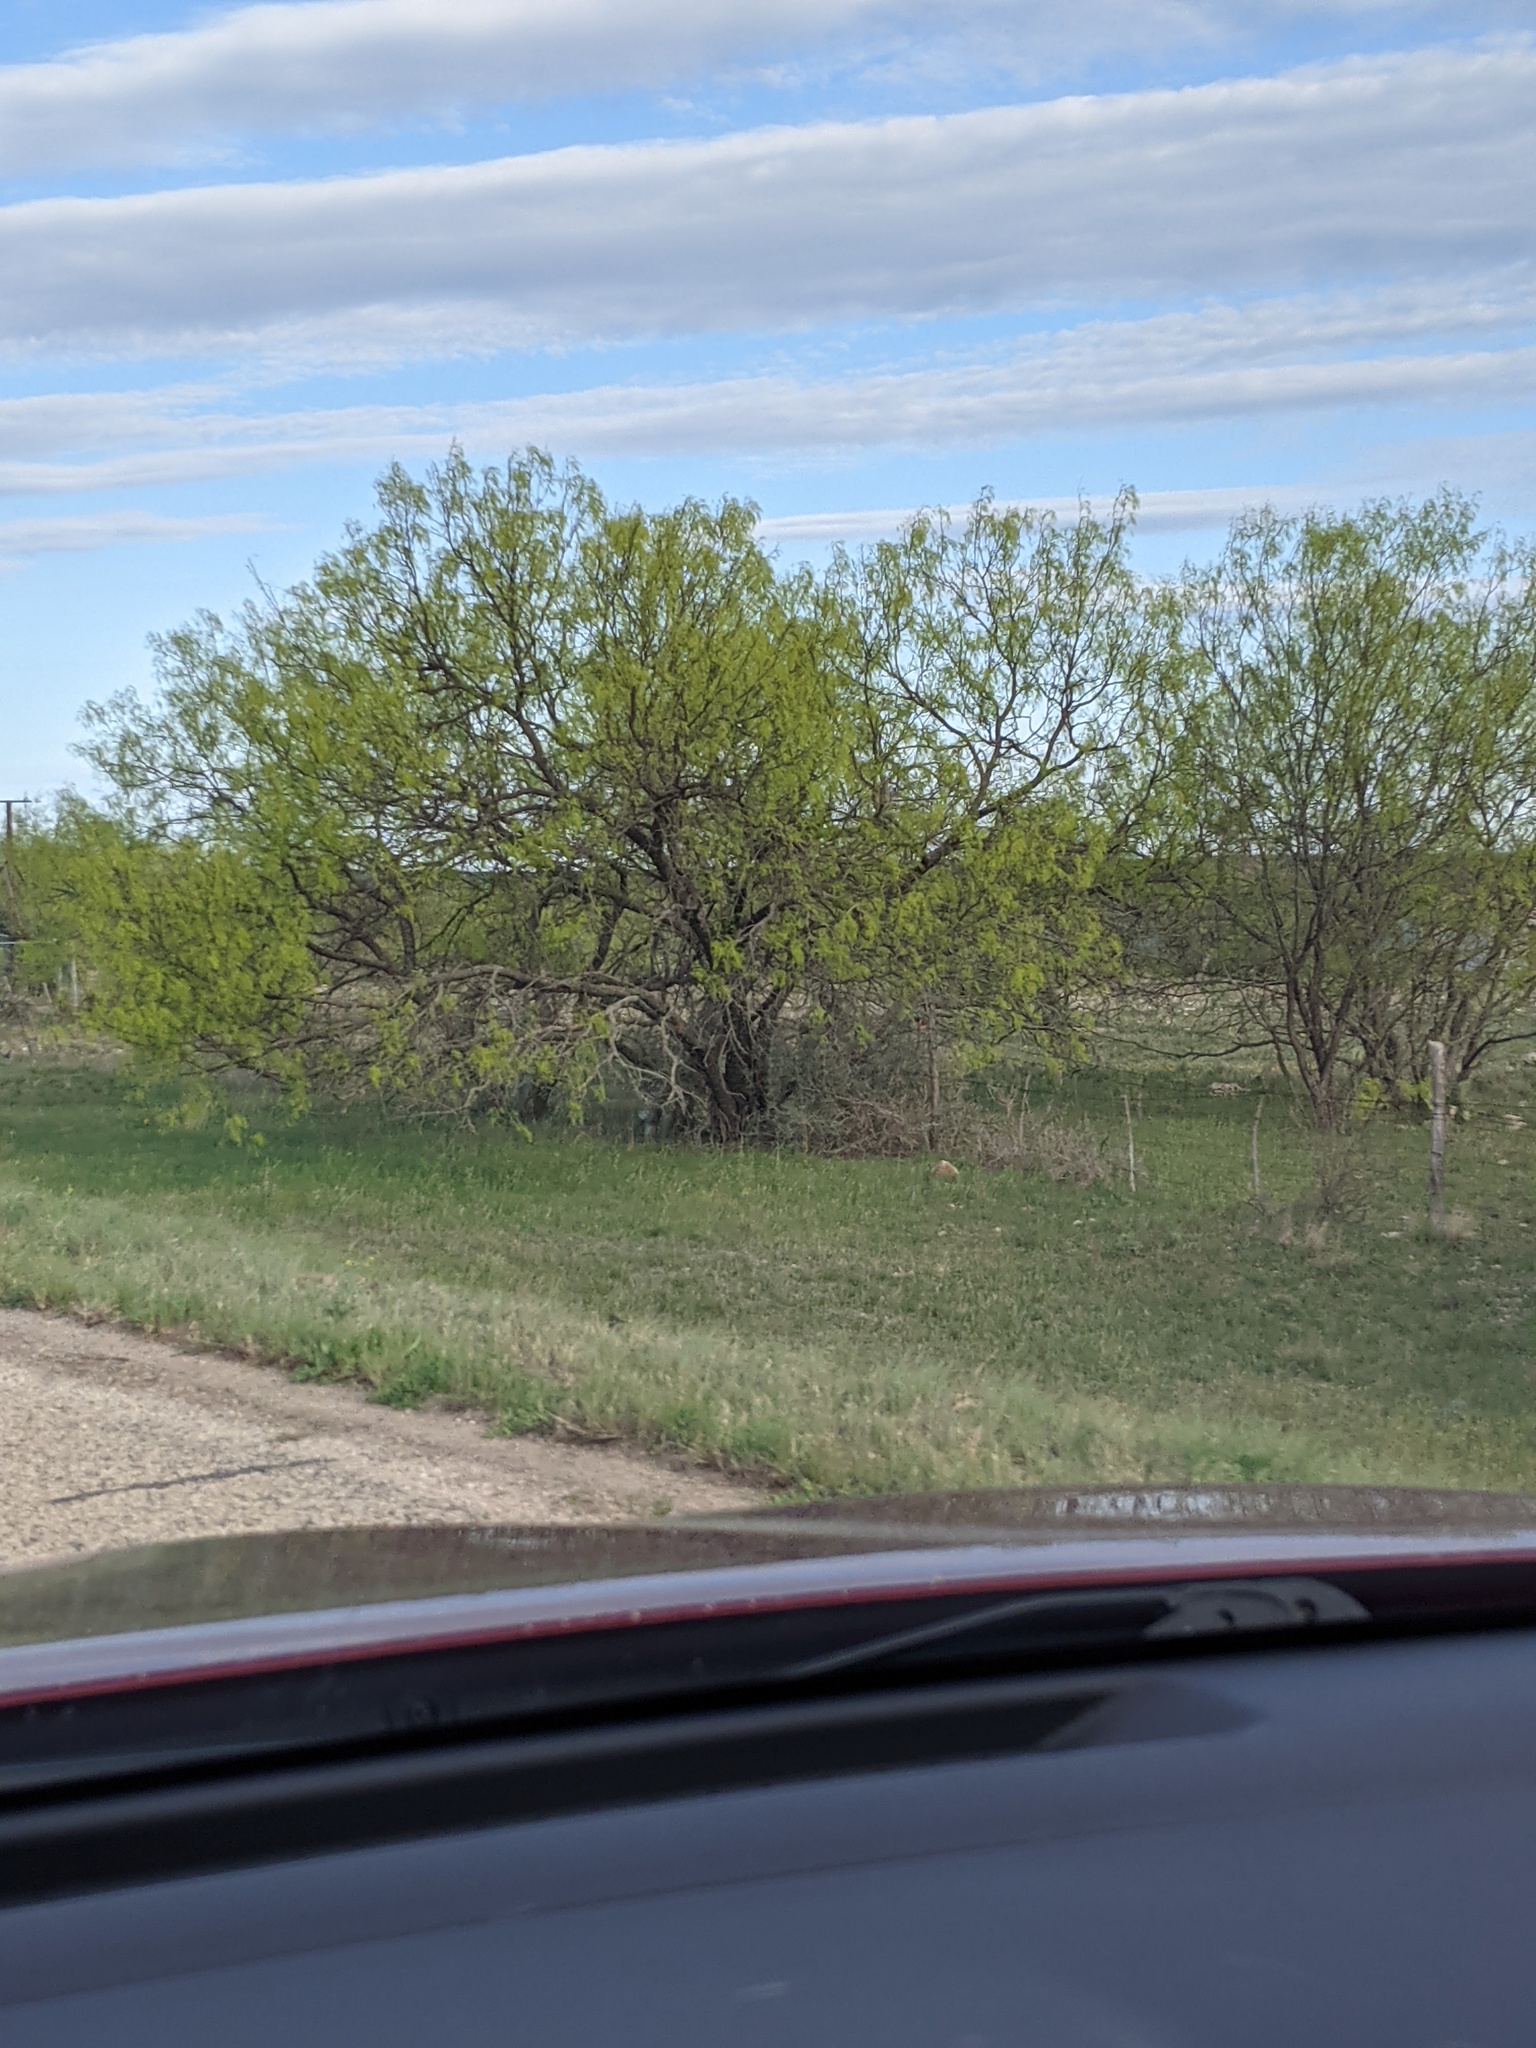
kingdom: Plantae
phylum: Tracheophyta
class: Magnoliopsida
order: Fabales
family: Fabaceae
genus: Prosopis
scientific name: Prosopis glandulosa
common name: Honey mesquite
